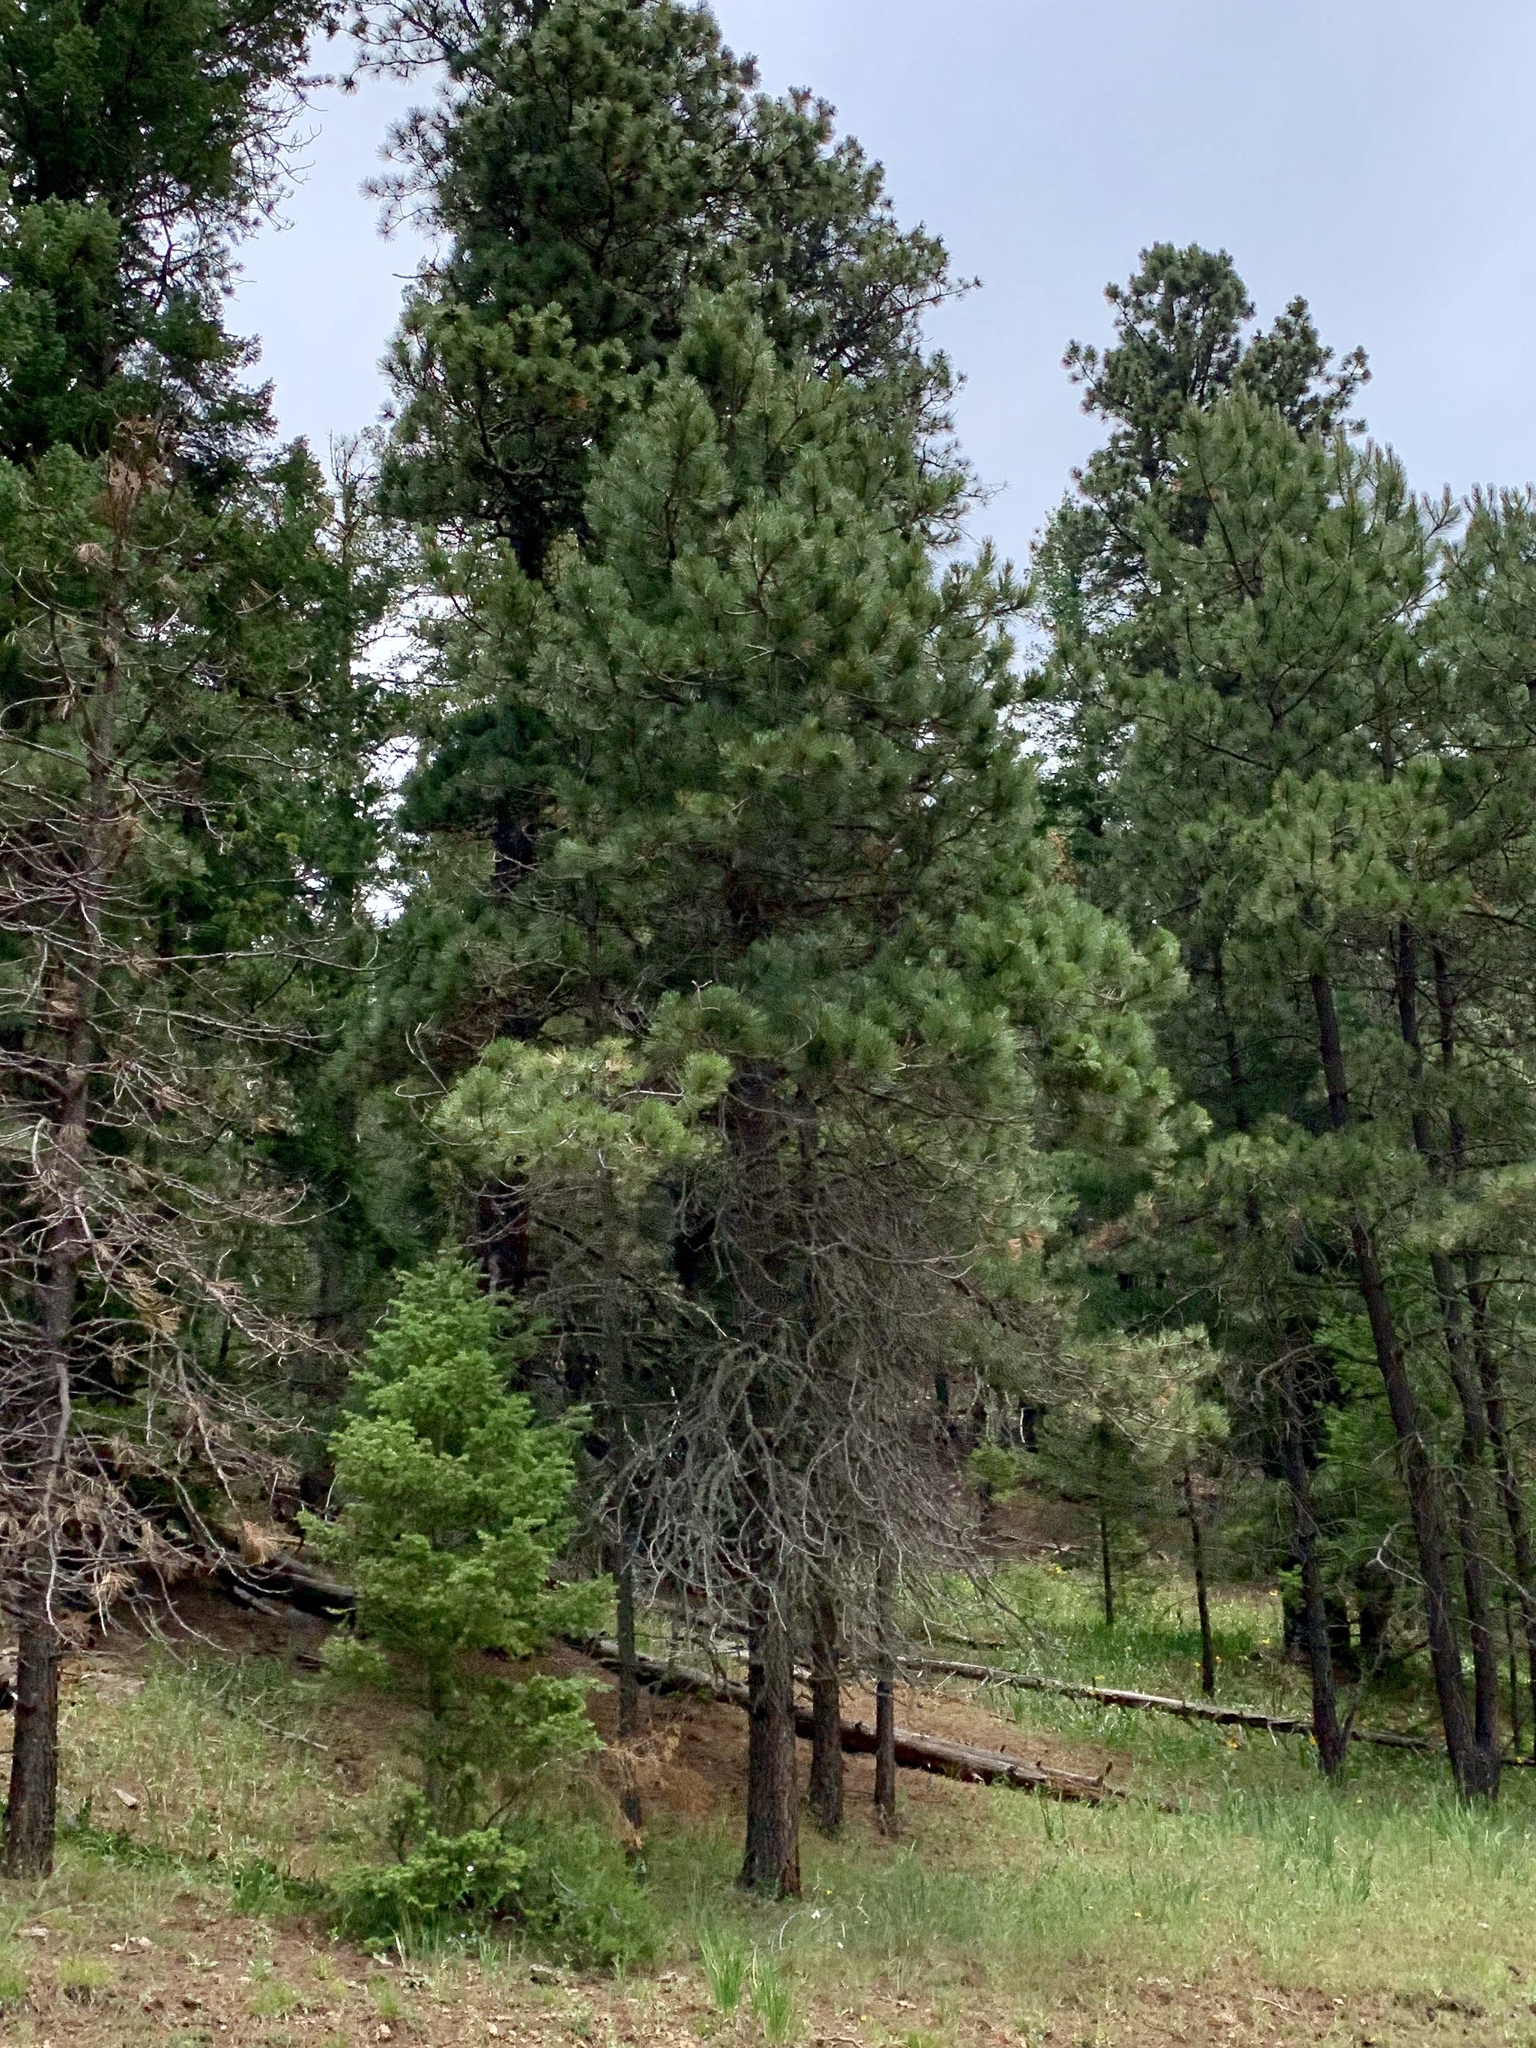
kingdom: Plantae
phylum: Tracheophyta
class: Pinopsida
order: Pinales
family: Pinaceae
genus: Pinus
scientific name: Pinus ponderosa
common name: Western yellow-pine
